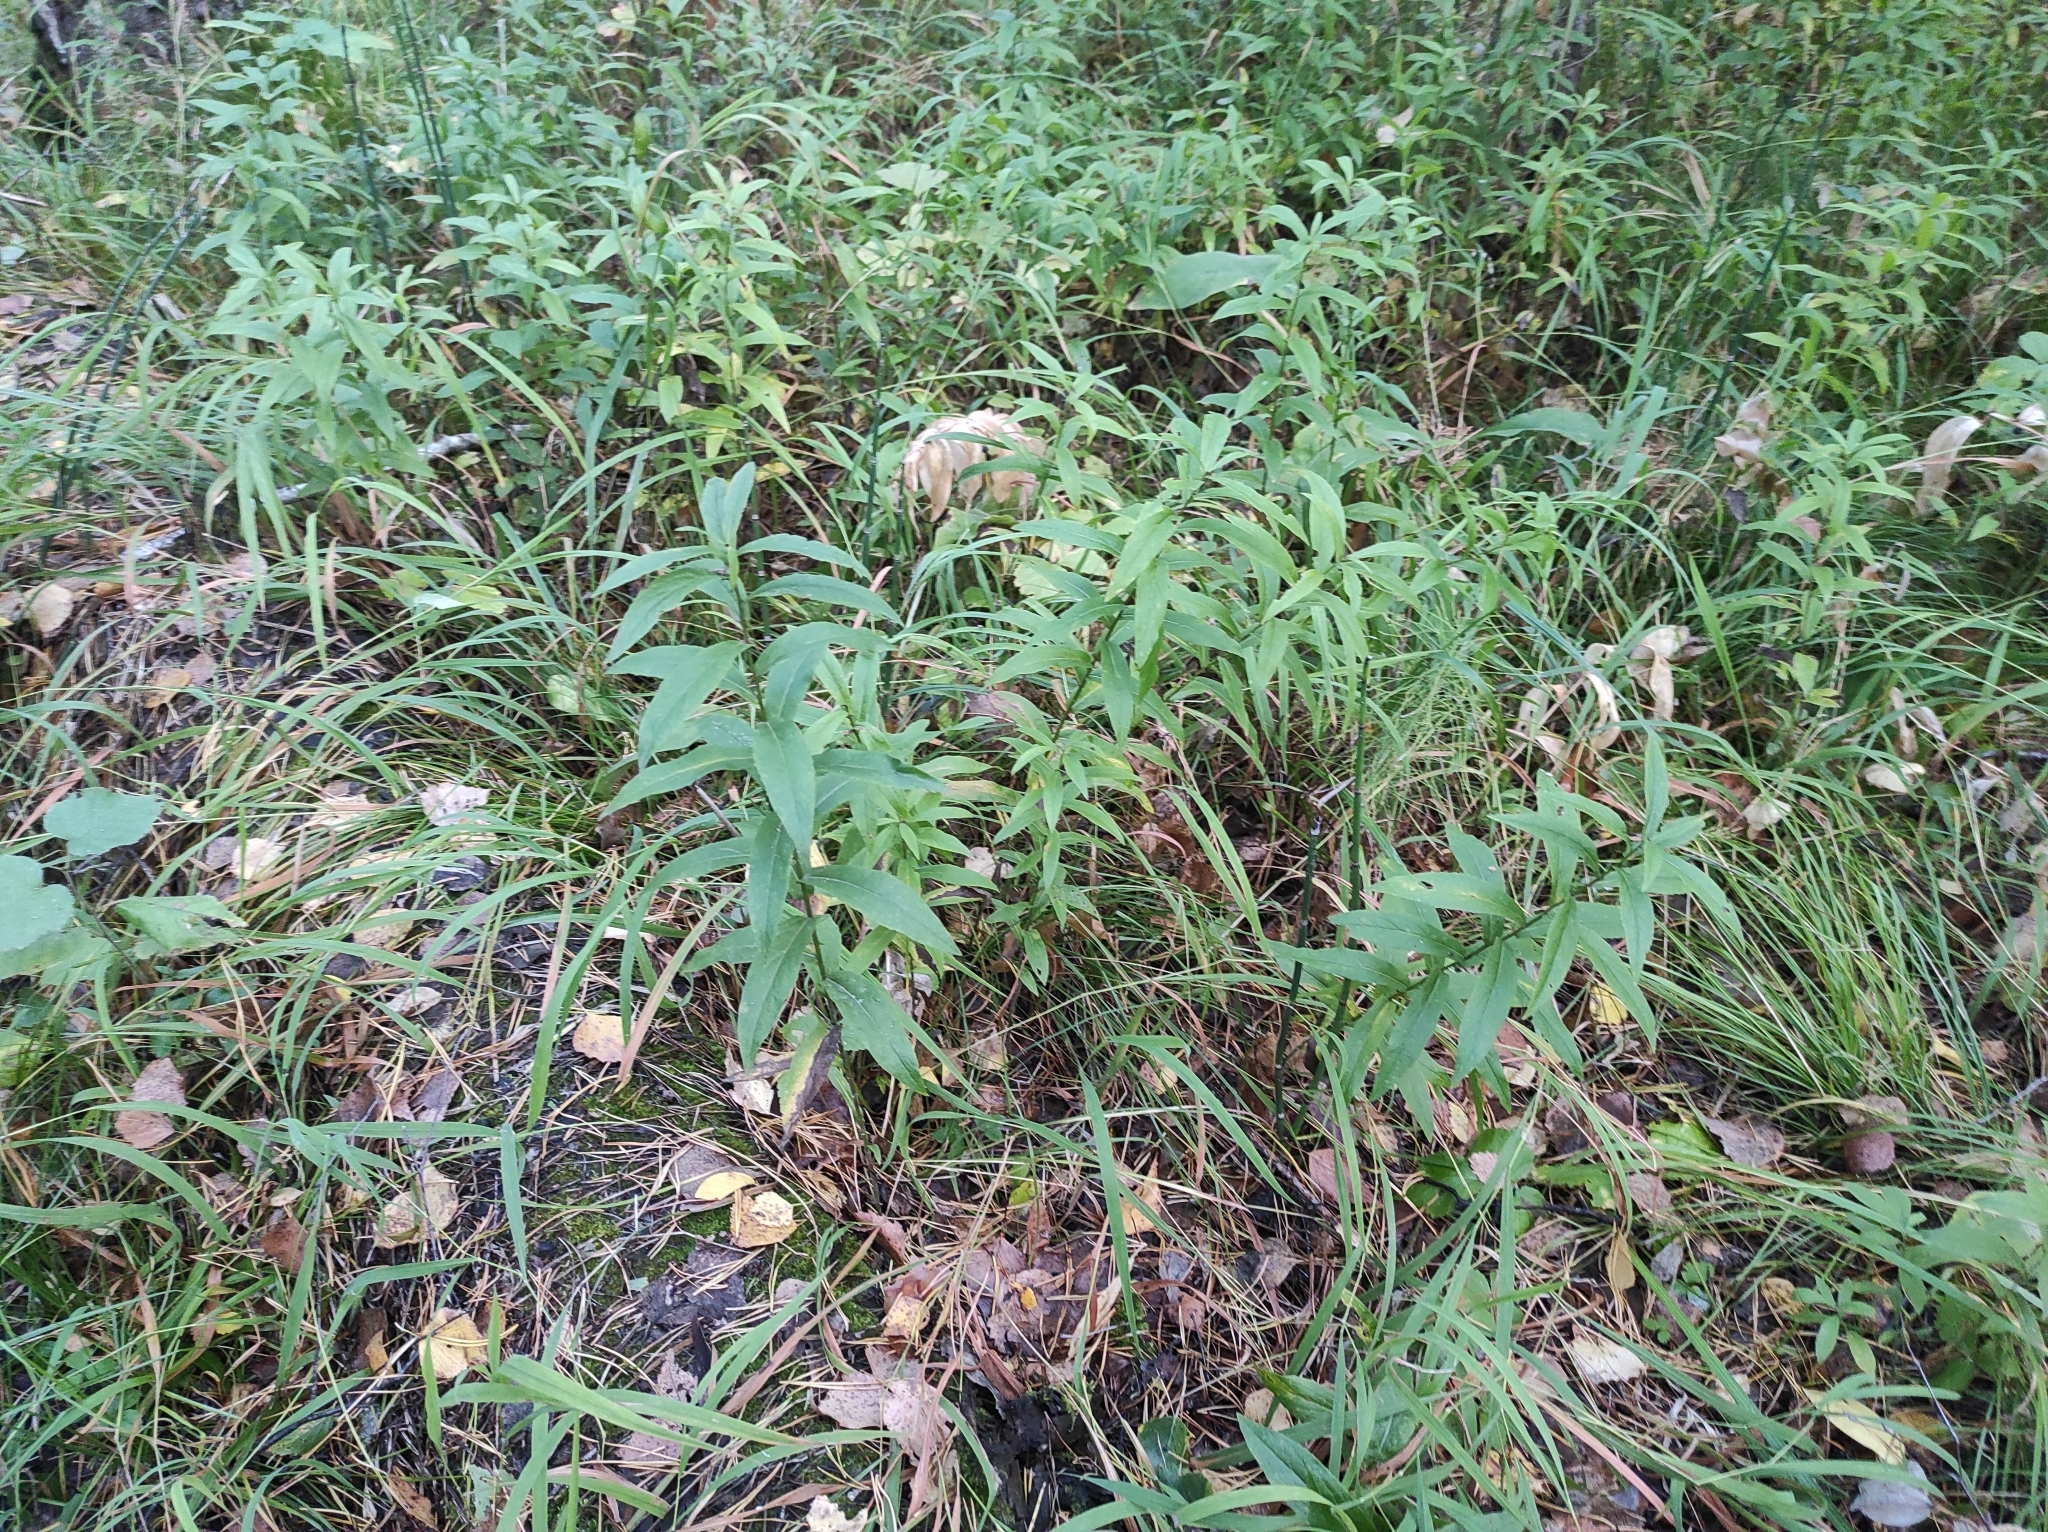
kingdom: Plantae
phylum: Tracheophyta
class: Magnoliopsida
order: Asterales
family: Asteraceae
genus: Pentanema
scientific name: Pentanema salicinum
